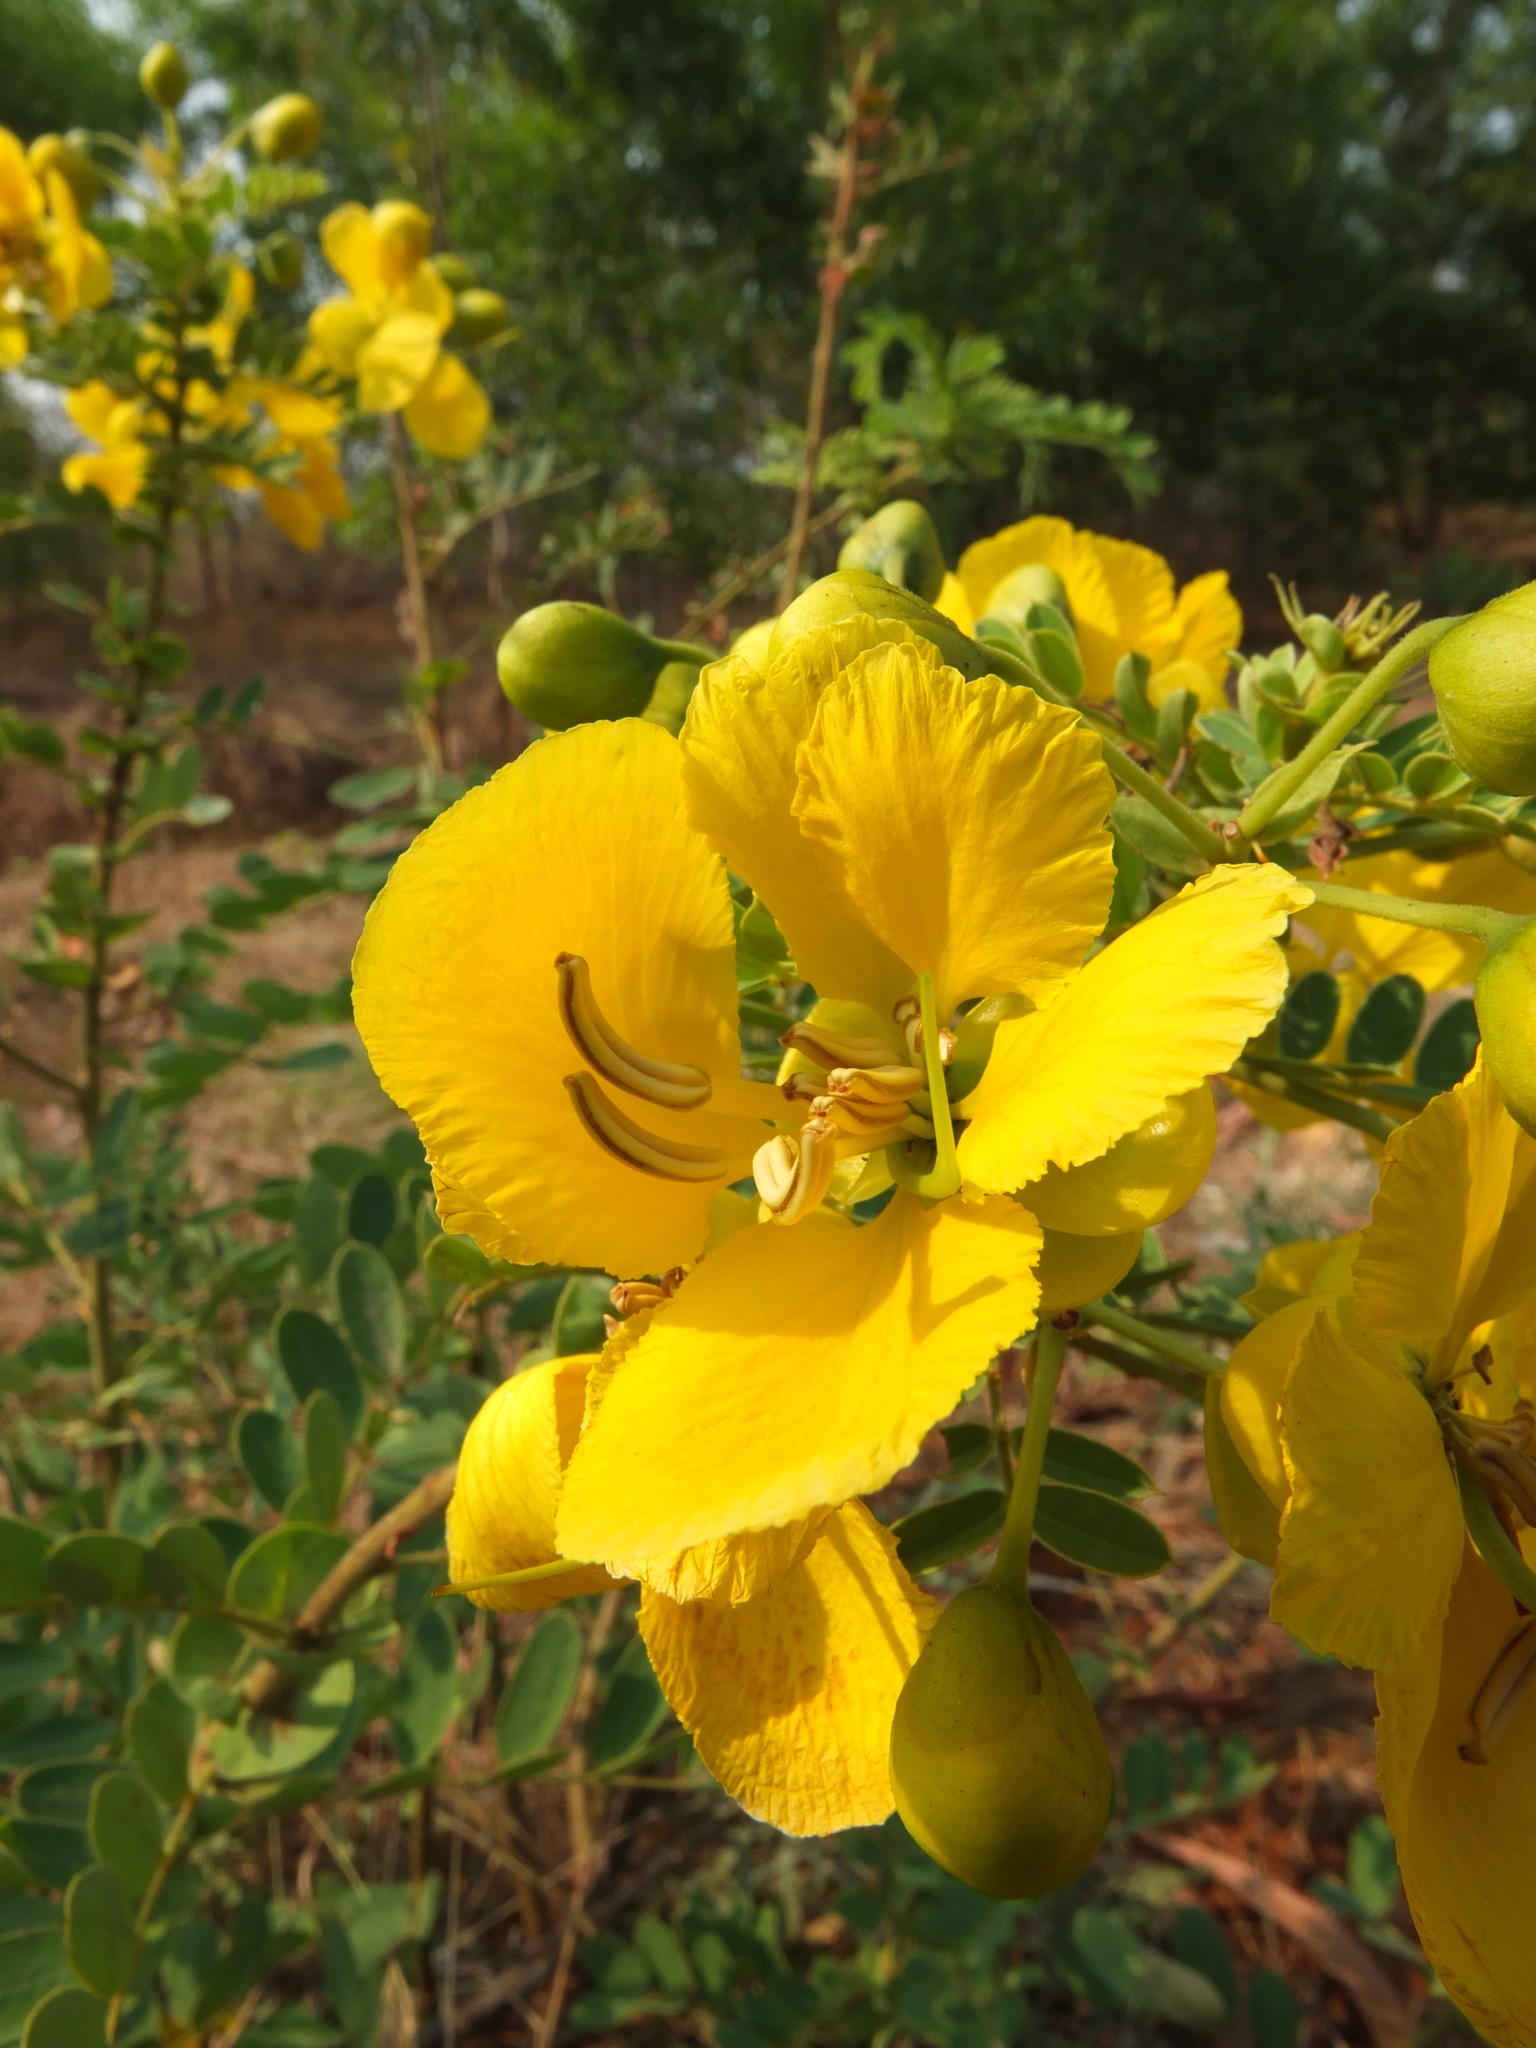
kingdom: Plantae
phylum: Tracheophyta
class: Magnoliopsida
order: Fabales
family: Fabaceae
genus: Senna
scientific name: Senna auriculata
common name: Tanner's cassia
